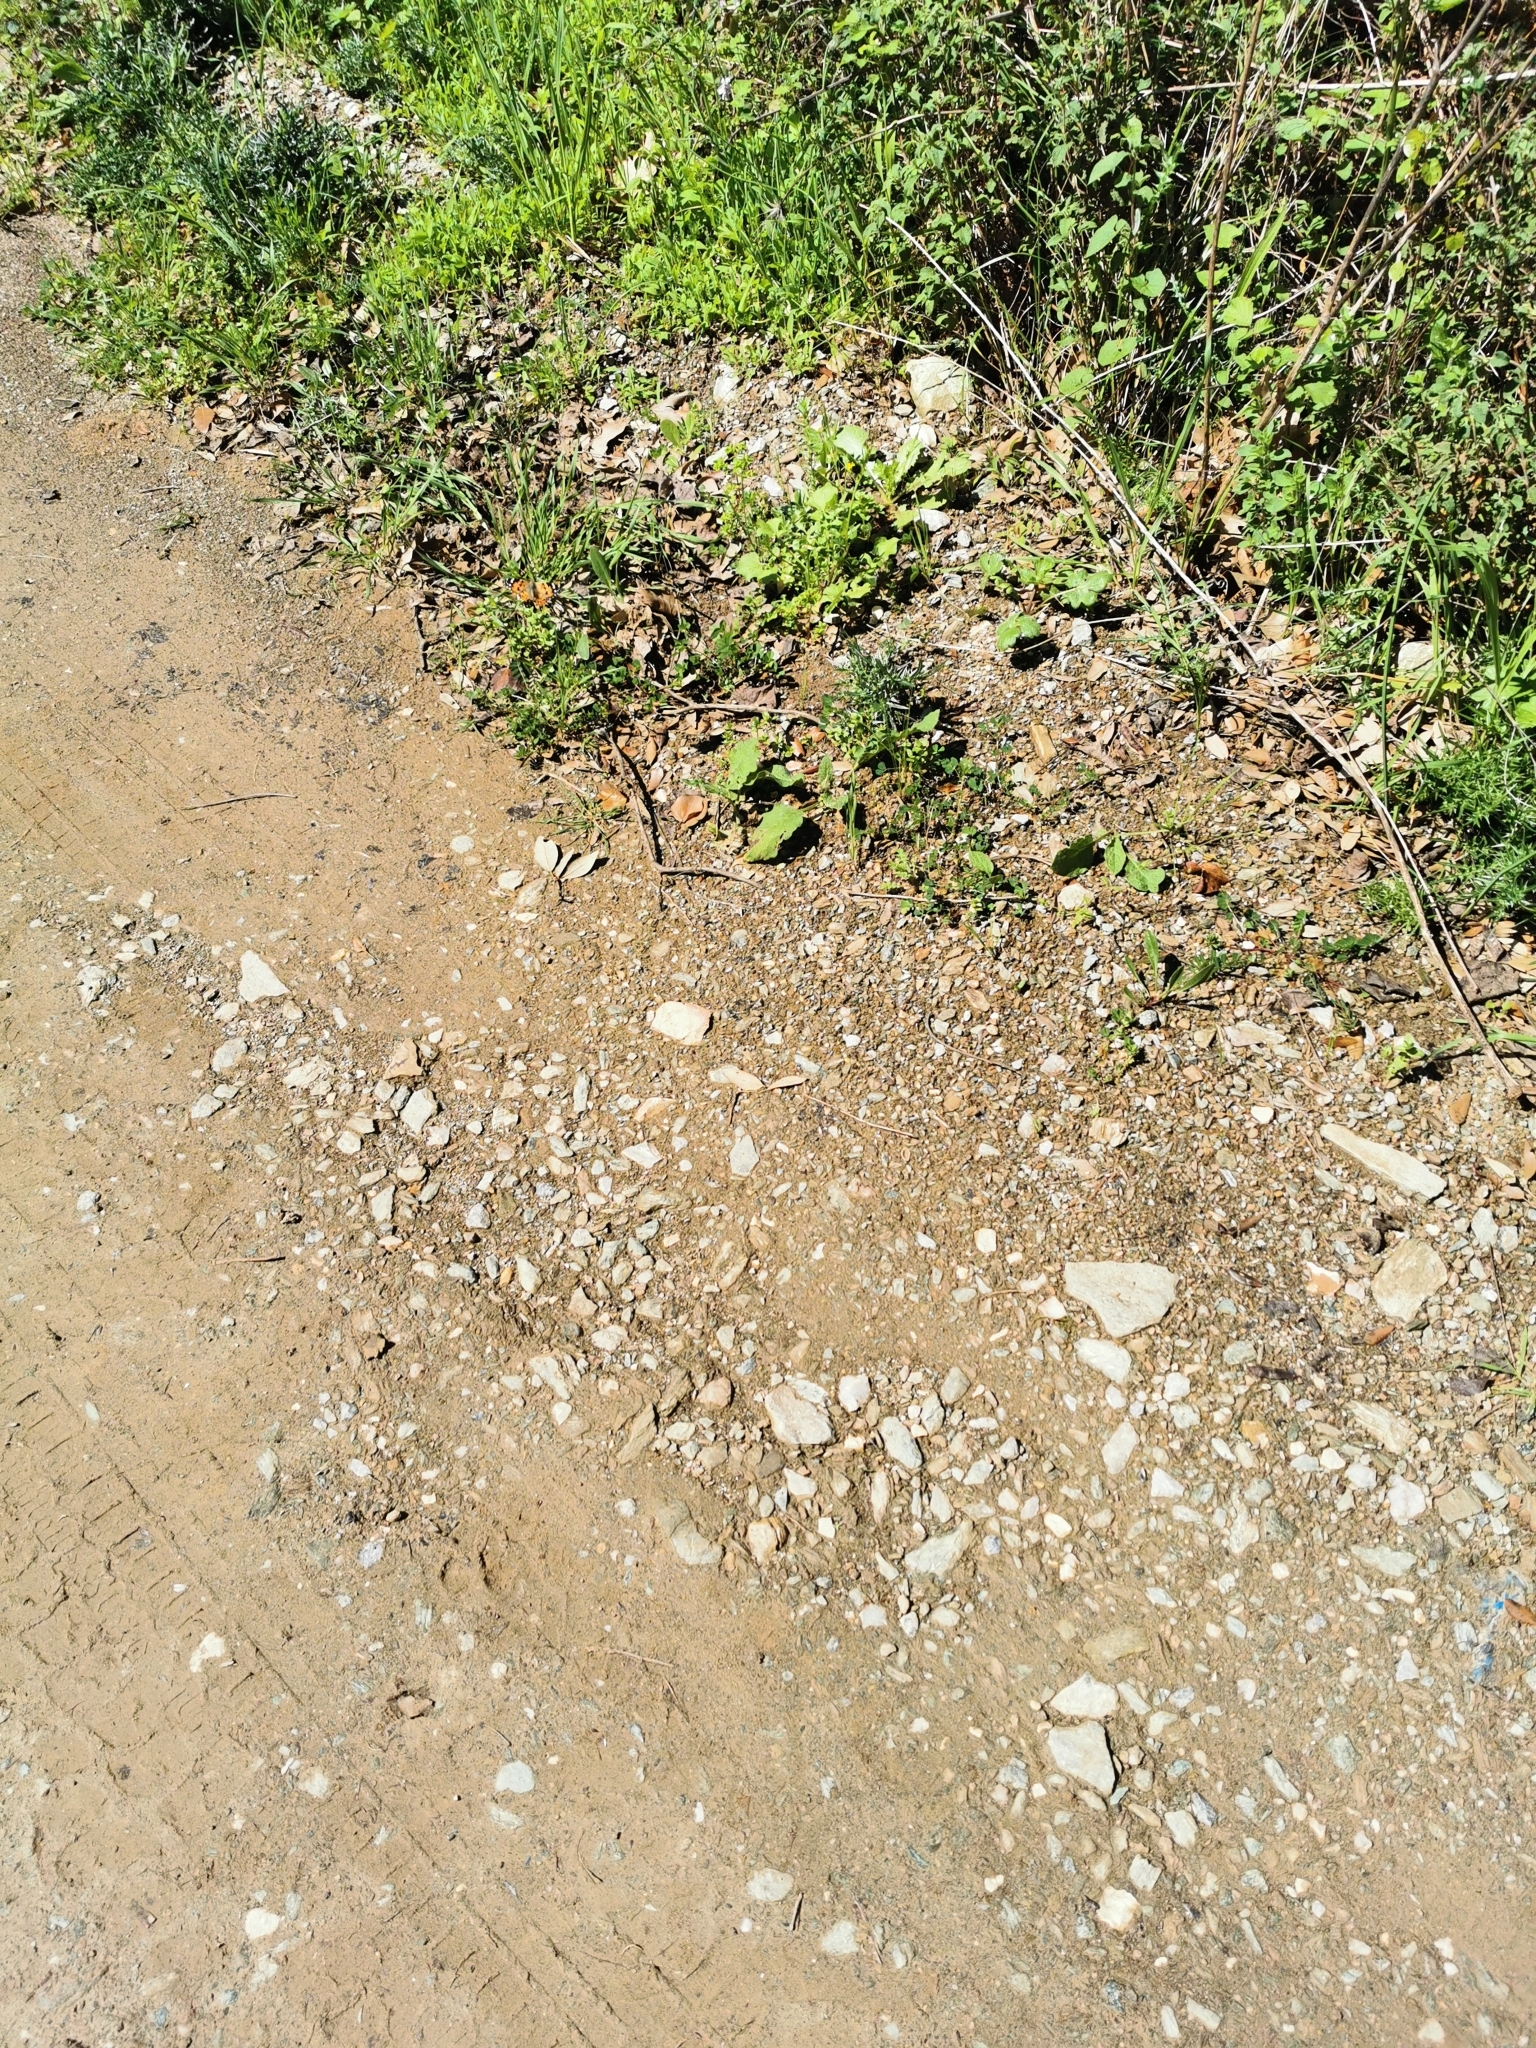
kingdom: Animalia
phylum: Arthropoda
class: Insecta
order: Lepidoptera
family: Nymphalidae
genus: Vanessa
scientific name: Vanessa cardui
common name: Painted lady
